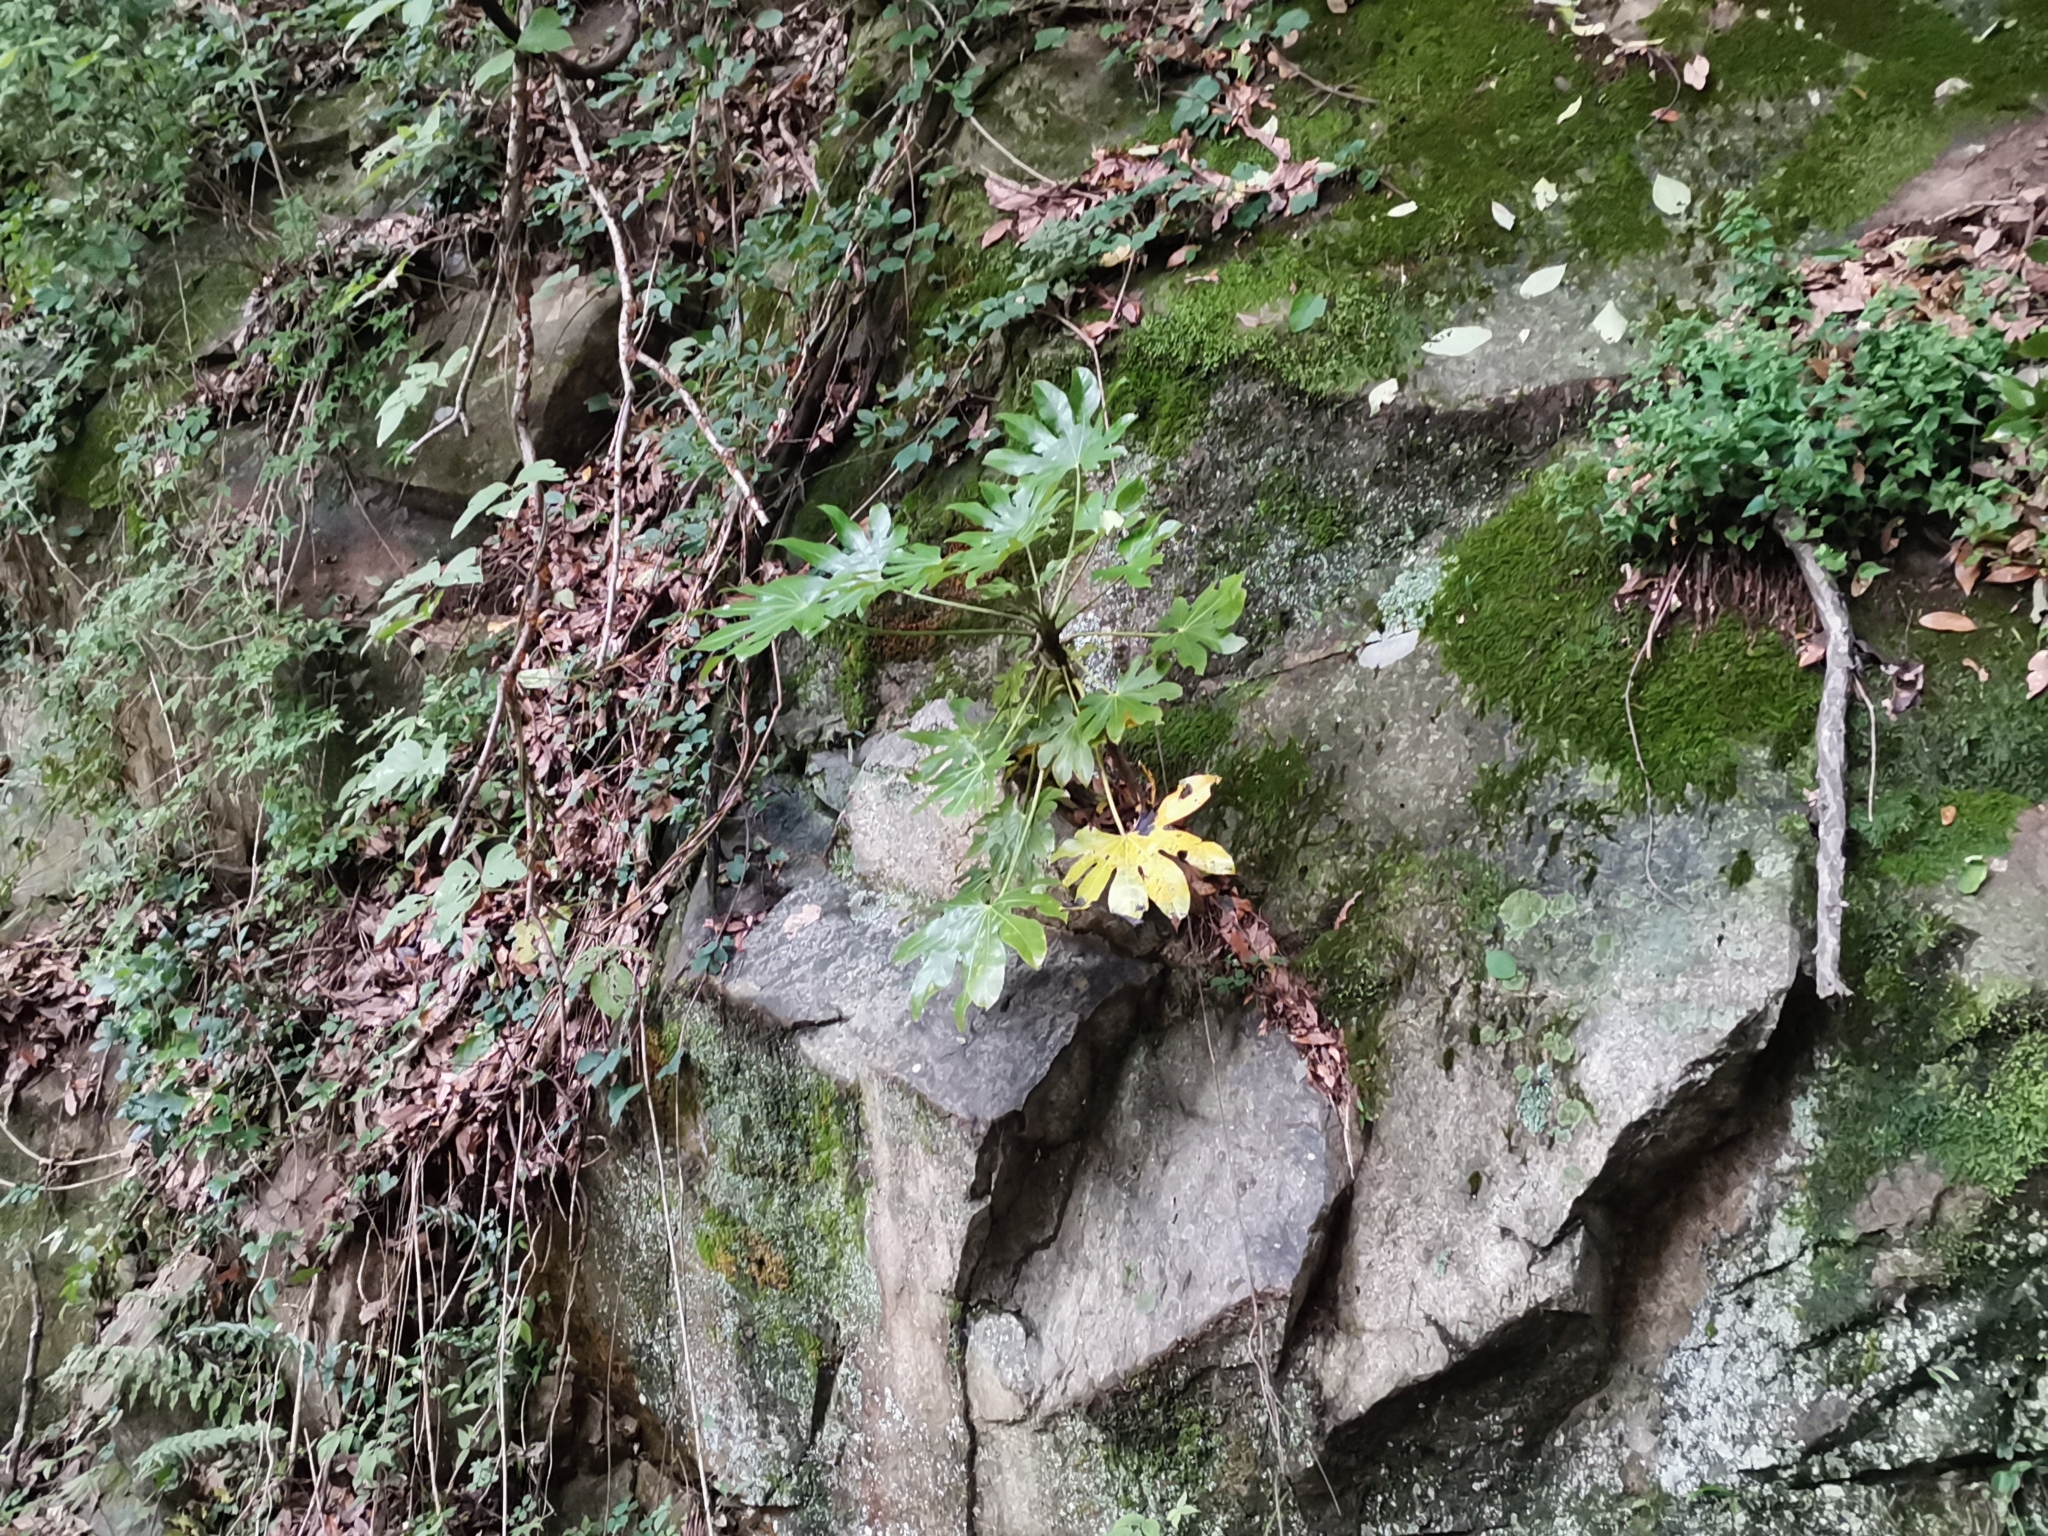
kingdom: Plantae
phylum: Tracheophyta
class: Magnoliopsida
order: Apiales
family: Araliaceae
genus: Fatsia
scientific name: Fatsia japonica
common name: Fatsia
